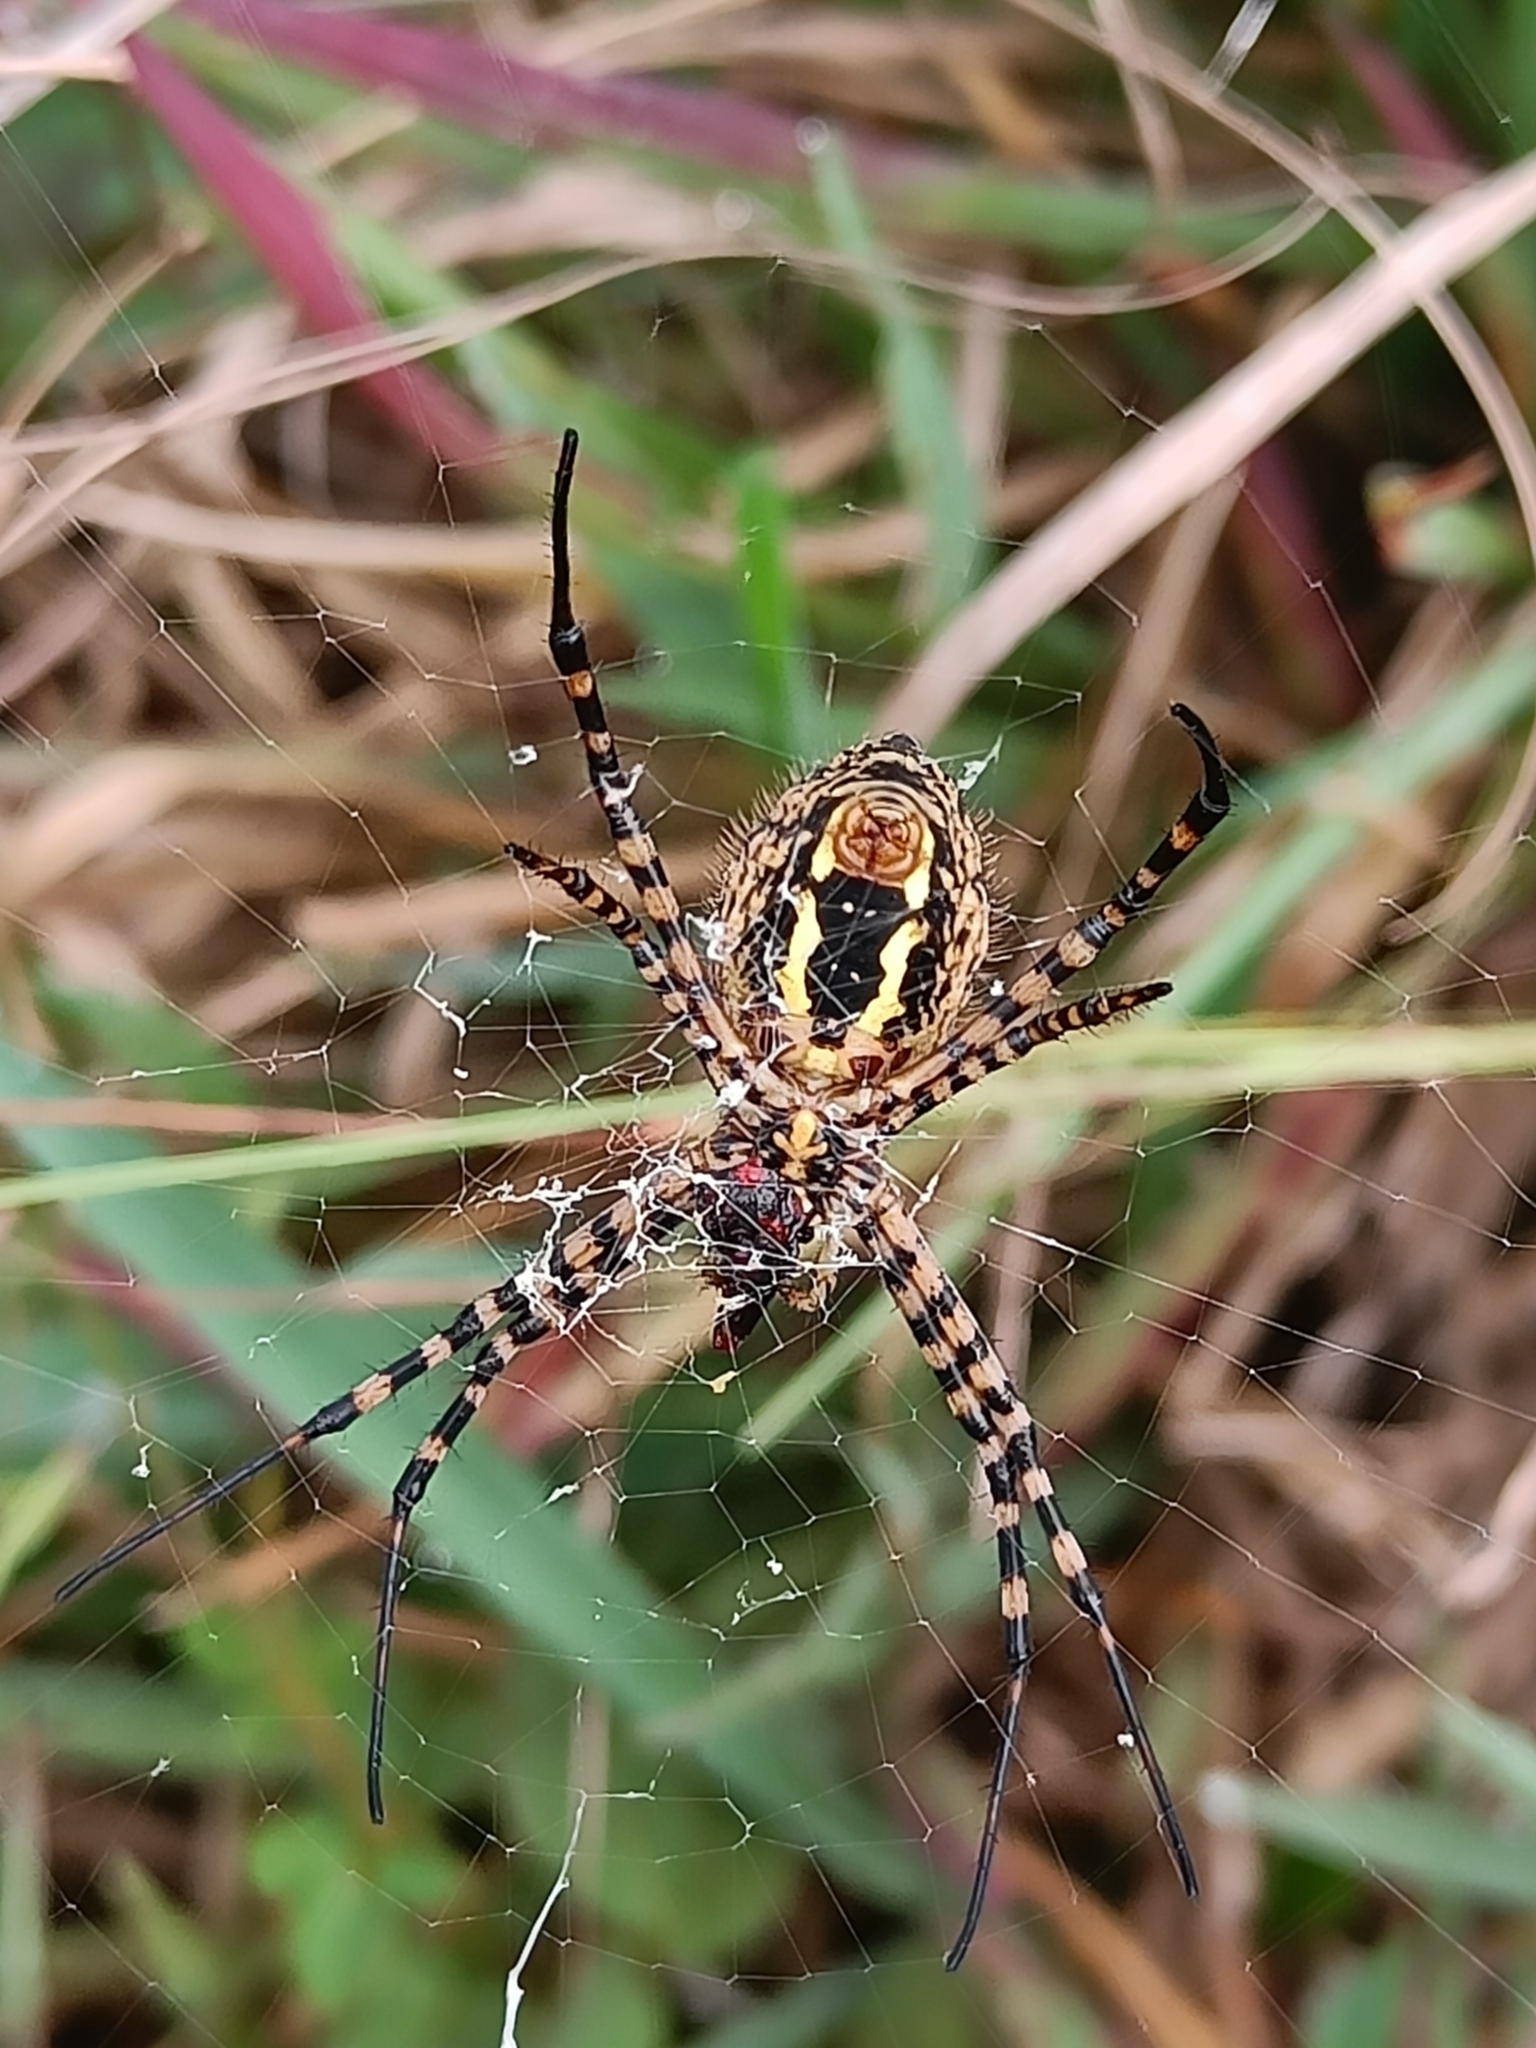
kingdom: Animalia
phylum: Arthropoda
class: Arachnida
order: Araneae
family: Araneidae
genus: Argiope
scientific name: Argiope trifasciata
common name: Banded garden spider
